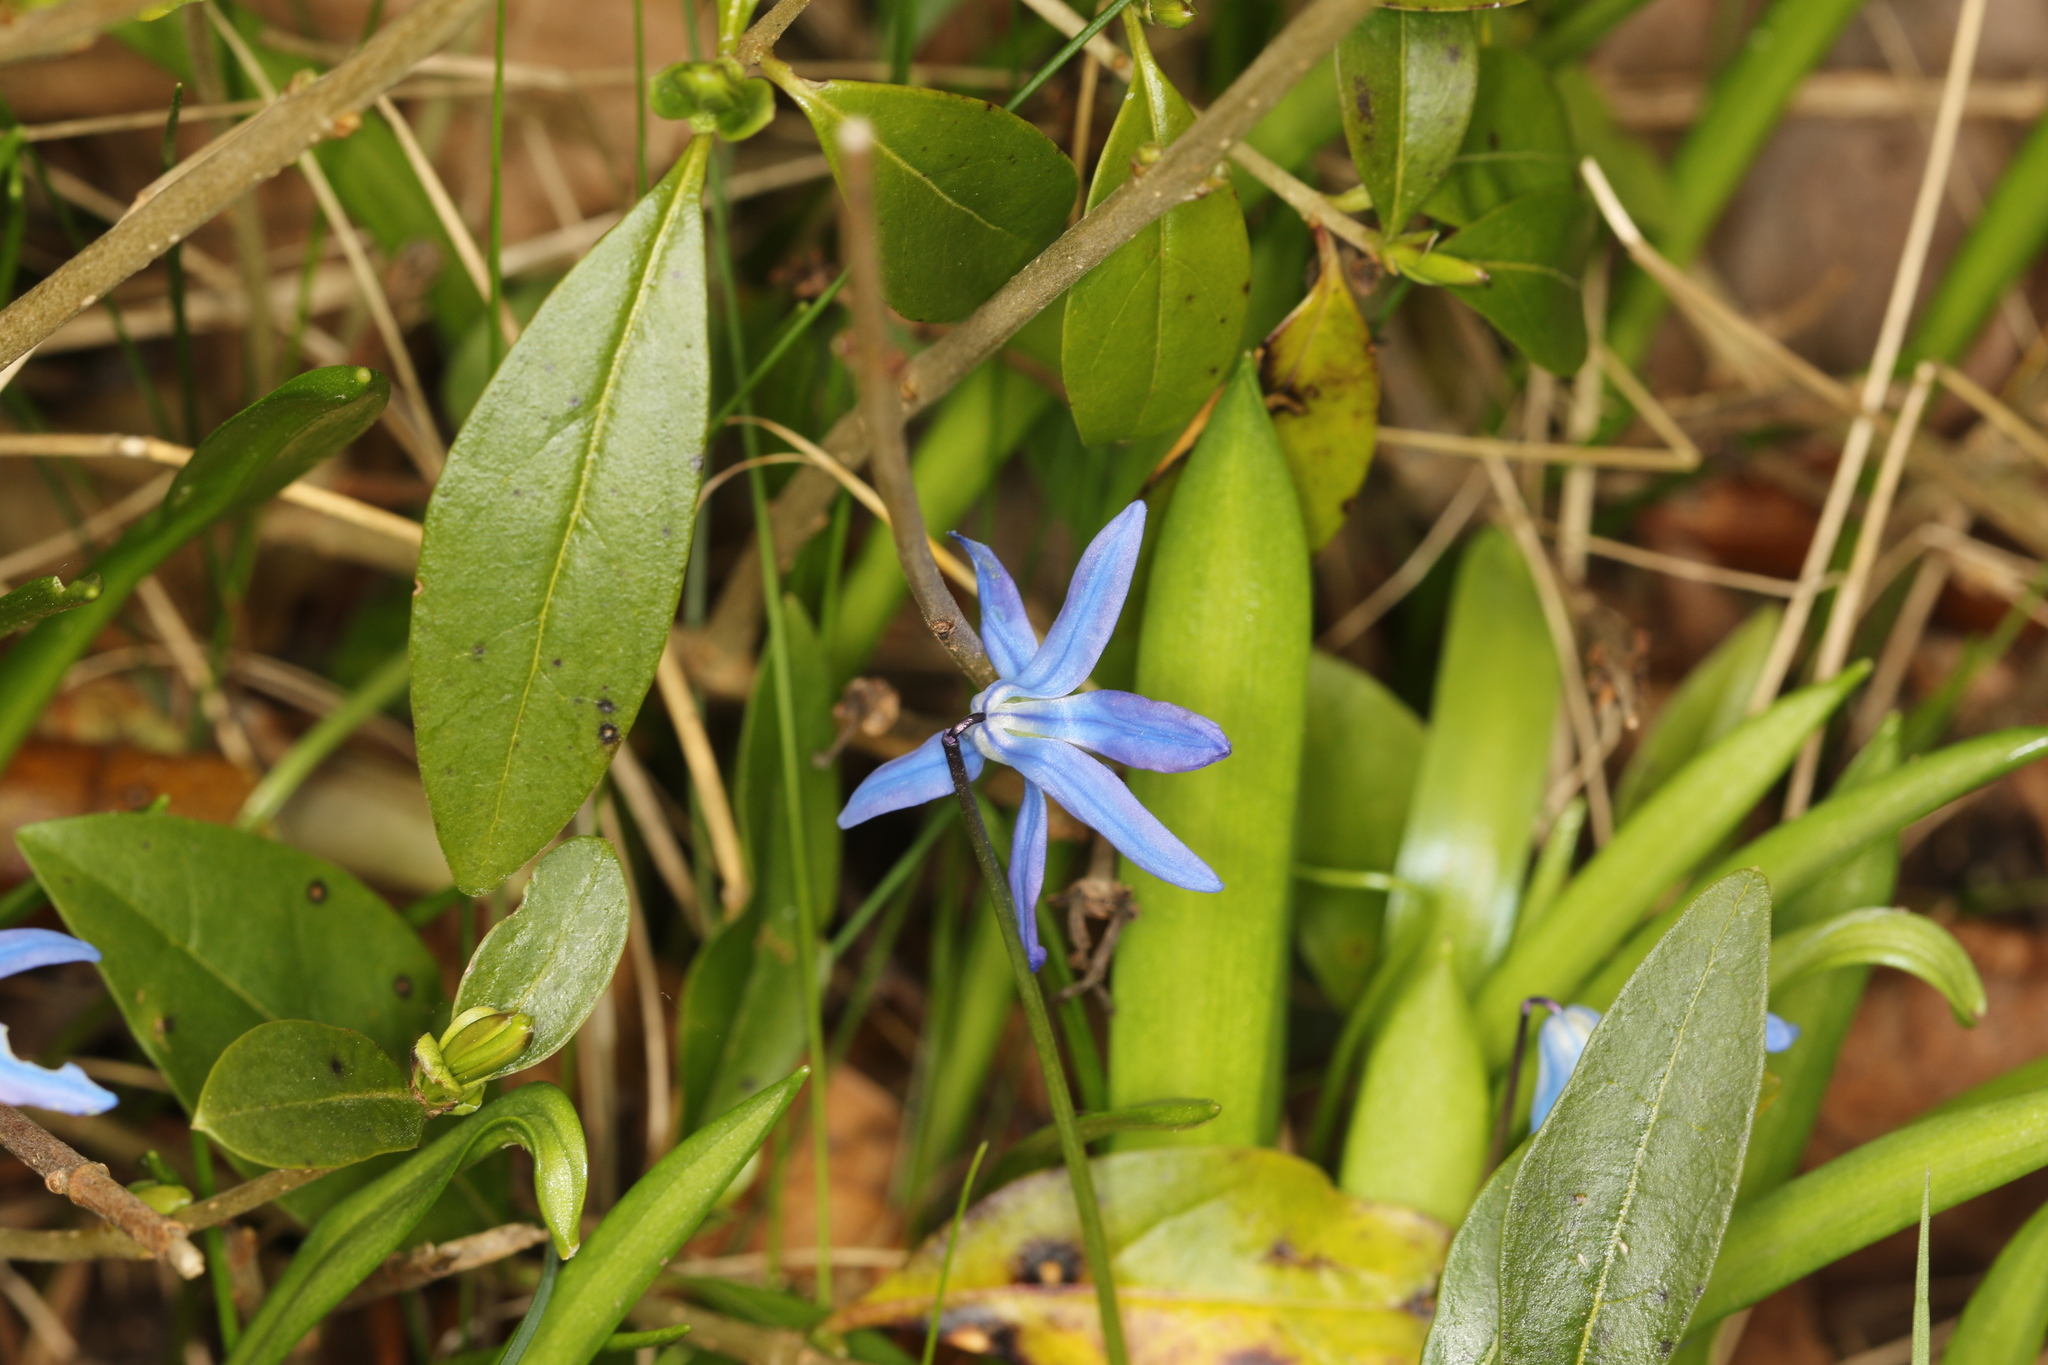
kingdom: Plantae
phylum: Tracheophyta
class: Liliopsida
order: Asparagales
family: Asparagaceae
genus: Scilla
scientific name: Scilla siberica
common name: Siberian squill
